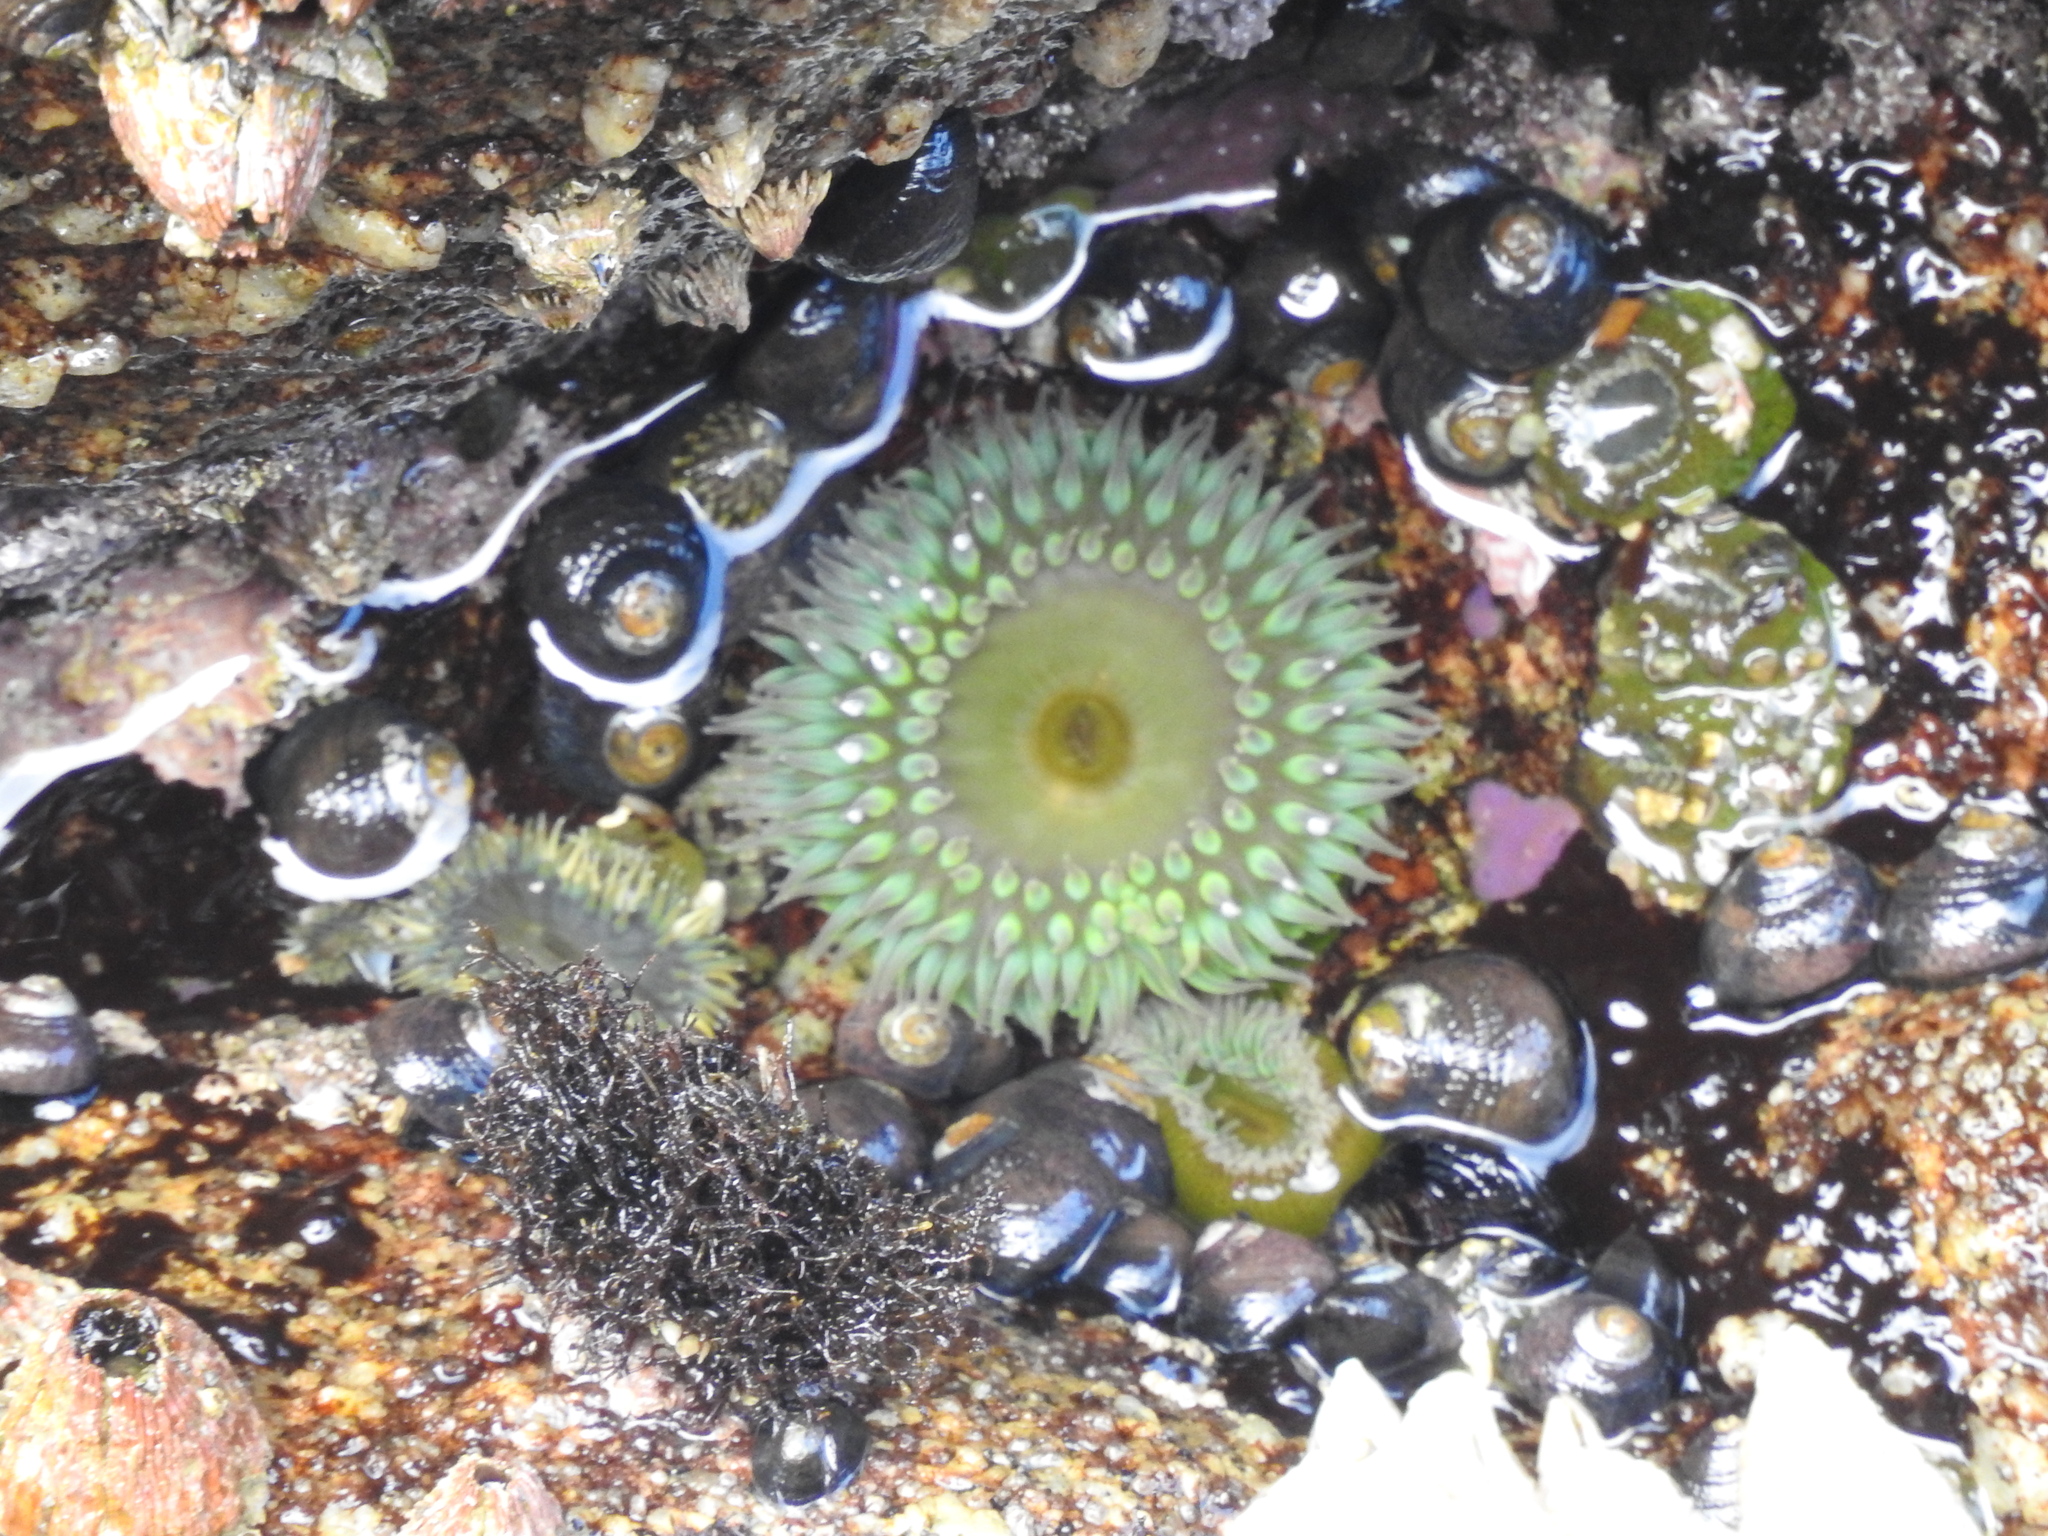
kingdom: Animalia
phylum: Cnidaria
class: Anthozoa
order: Actiniaria
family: Actiniidae
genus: Anthopleura
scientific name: Anthopleura xanthogrammica
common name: Giant green anemone
